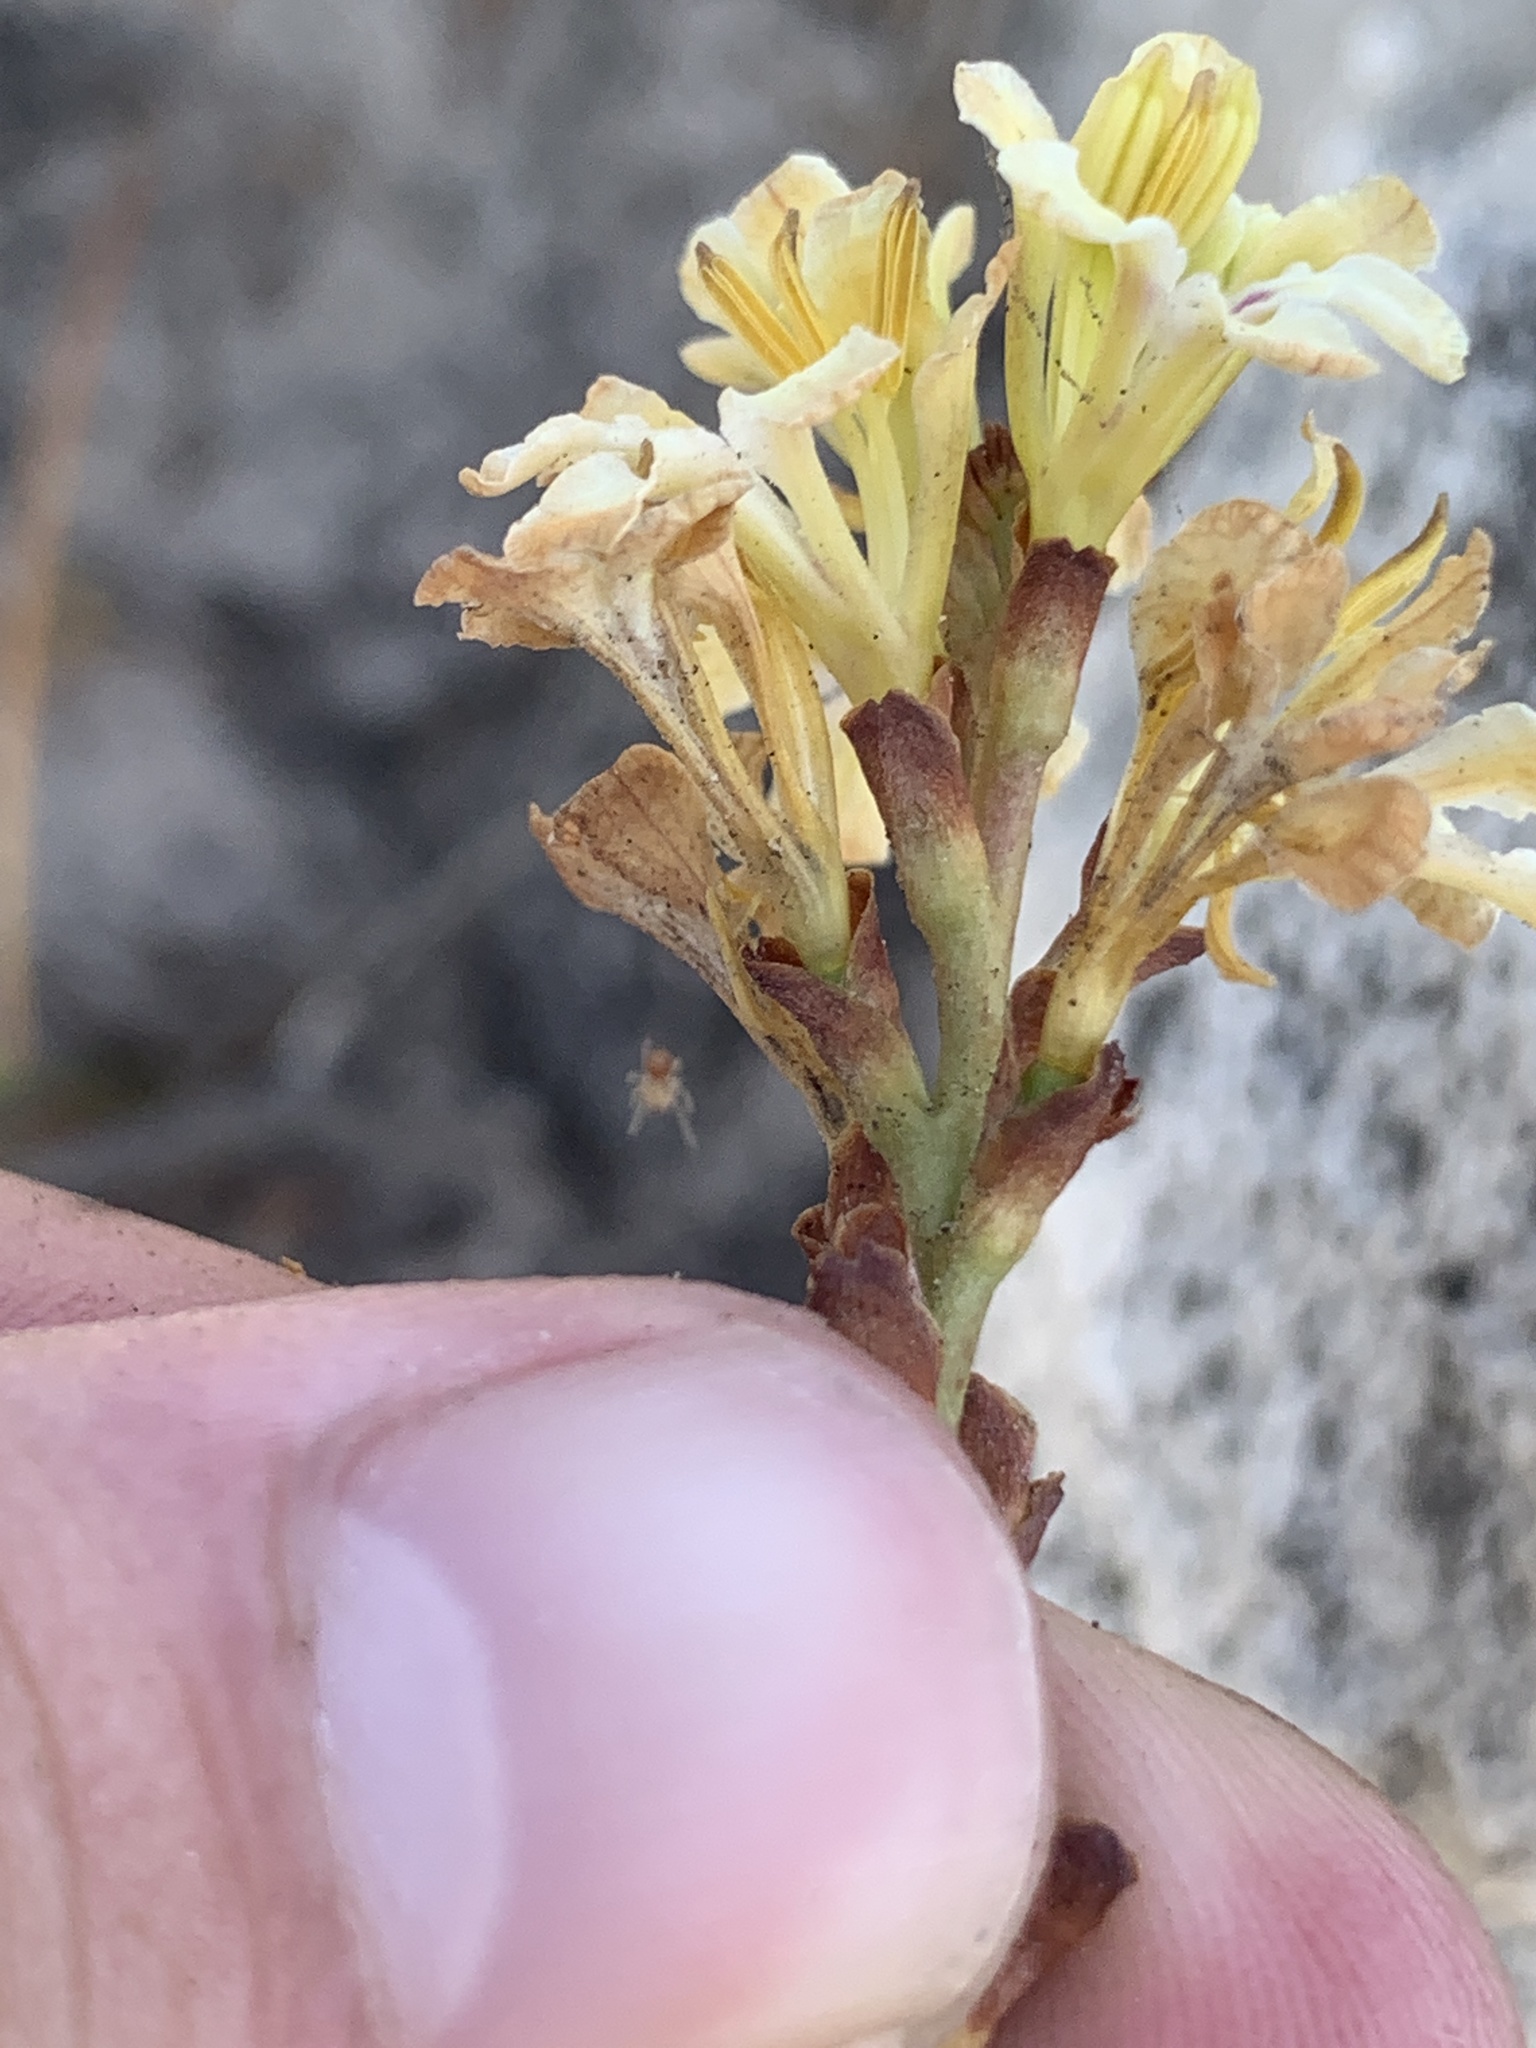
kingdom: Plantae
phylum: Tracheophyta
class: Liliopsida
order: Asparagales
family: Iridaceae
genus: Tritoniopsis
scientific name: Tritoniopsis unguicularis
